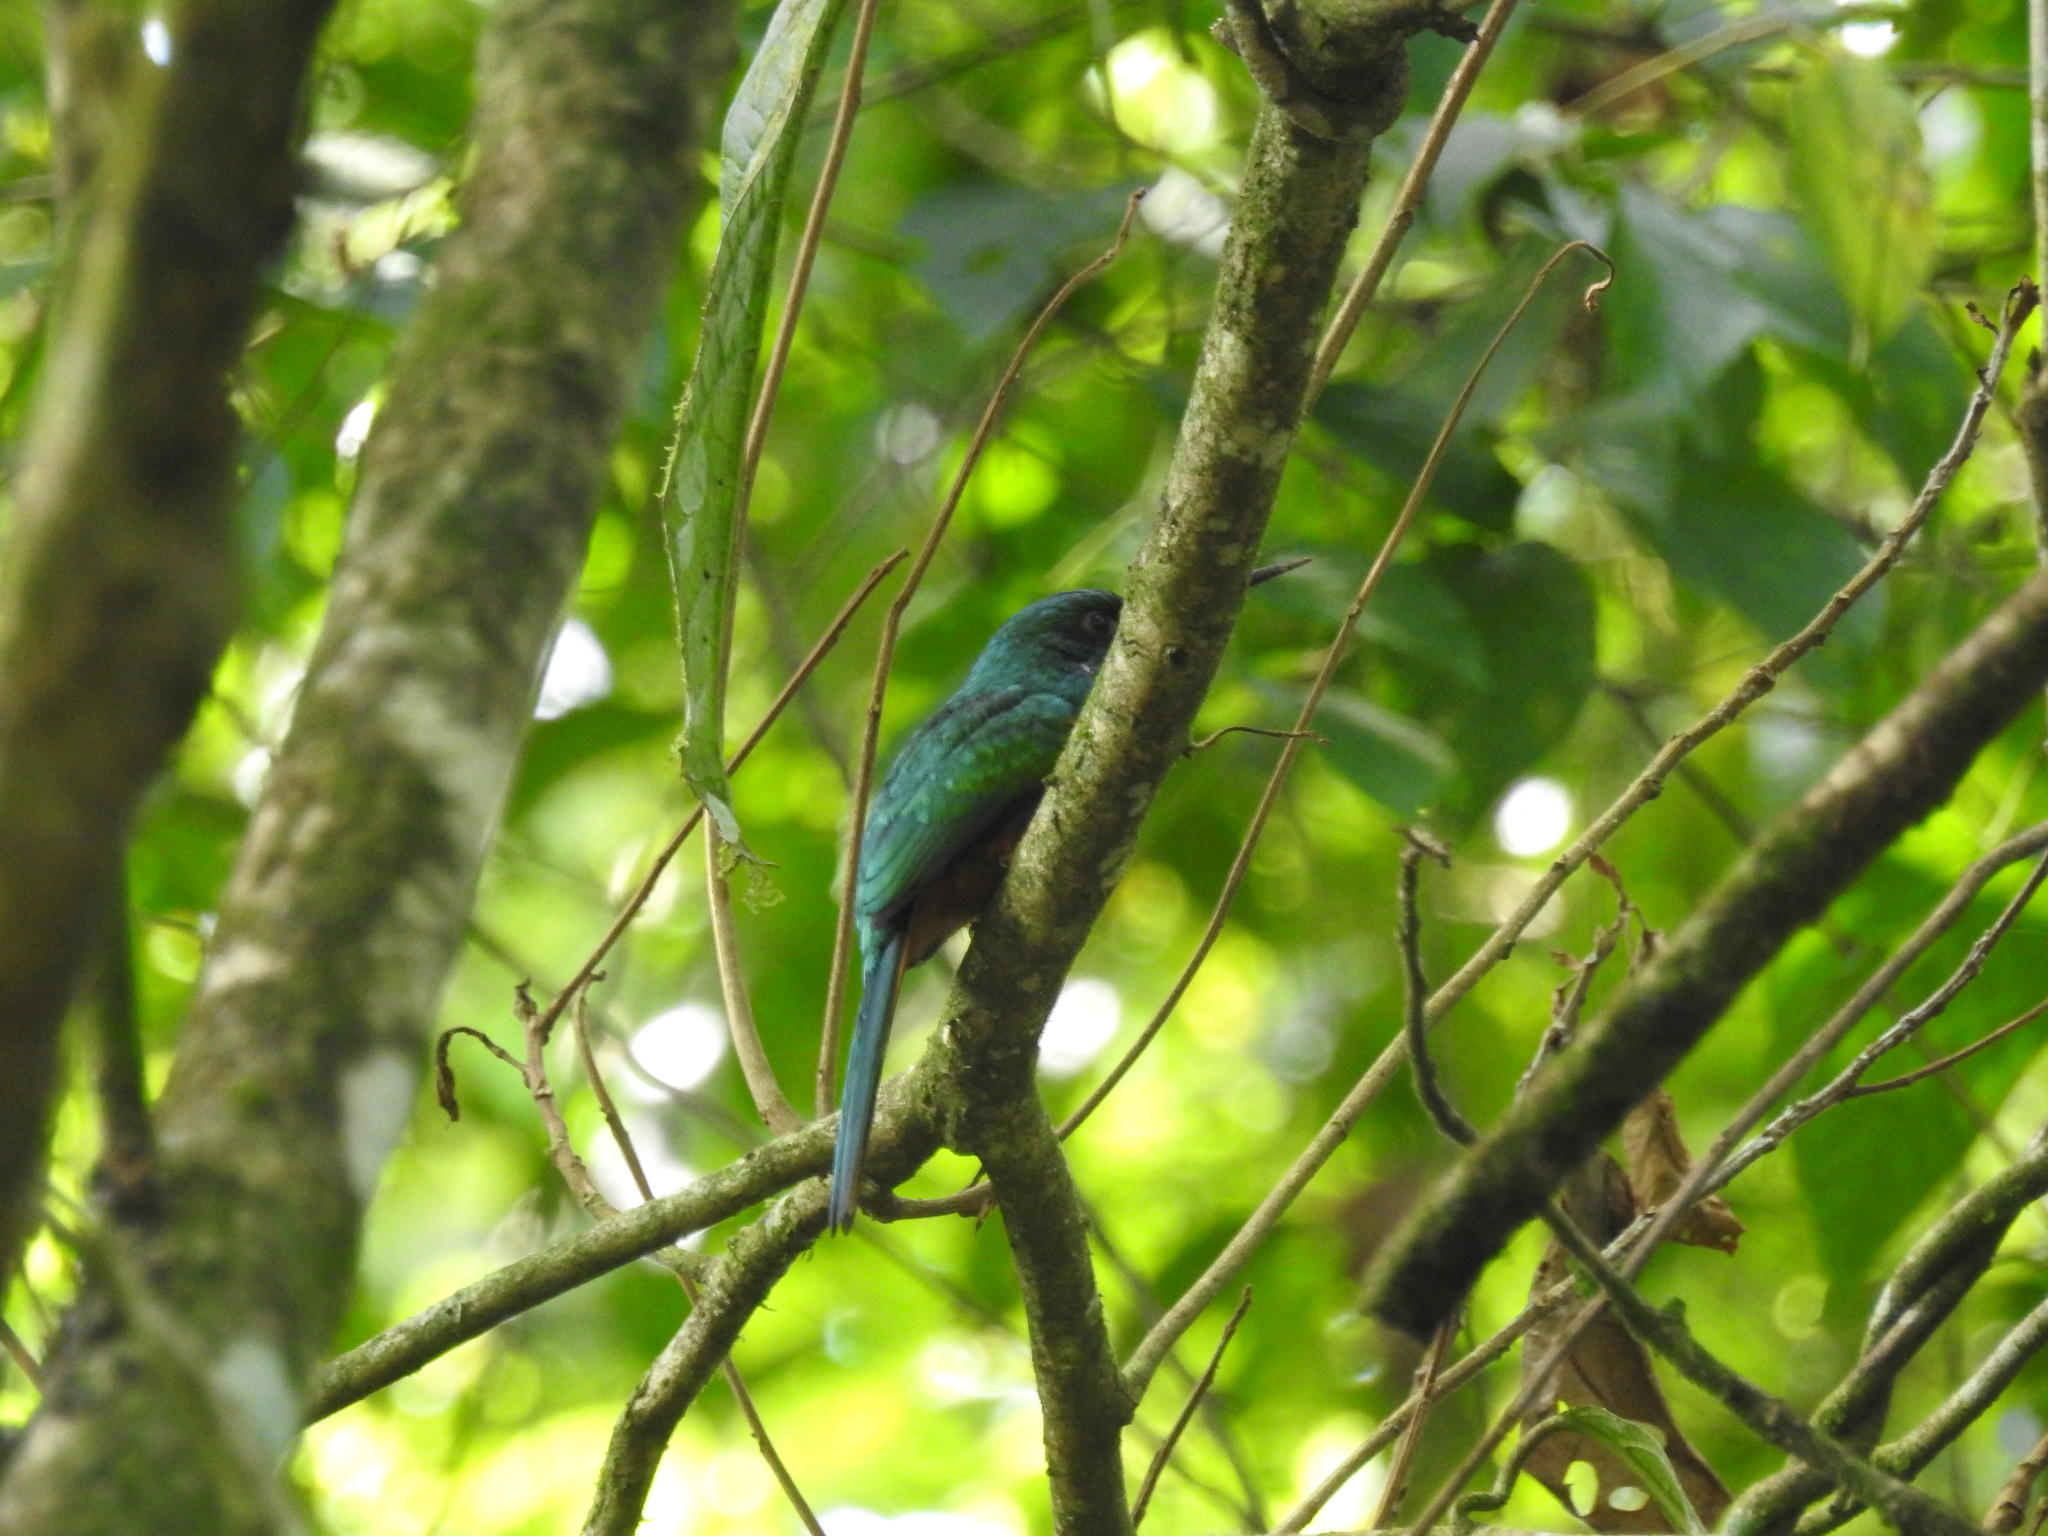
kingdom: Animalia
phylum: Chordata
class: Aves
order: Piciformes
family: Galbulidae
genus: Galbula
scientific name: Galbula ruficauda
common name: Rufous-tailed jacamar
